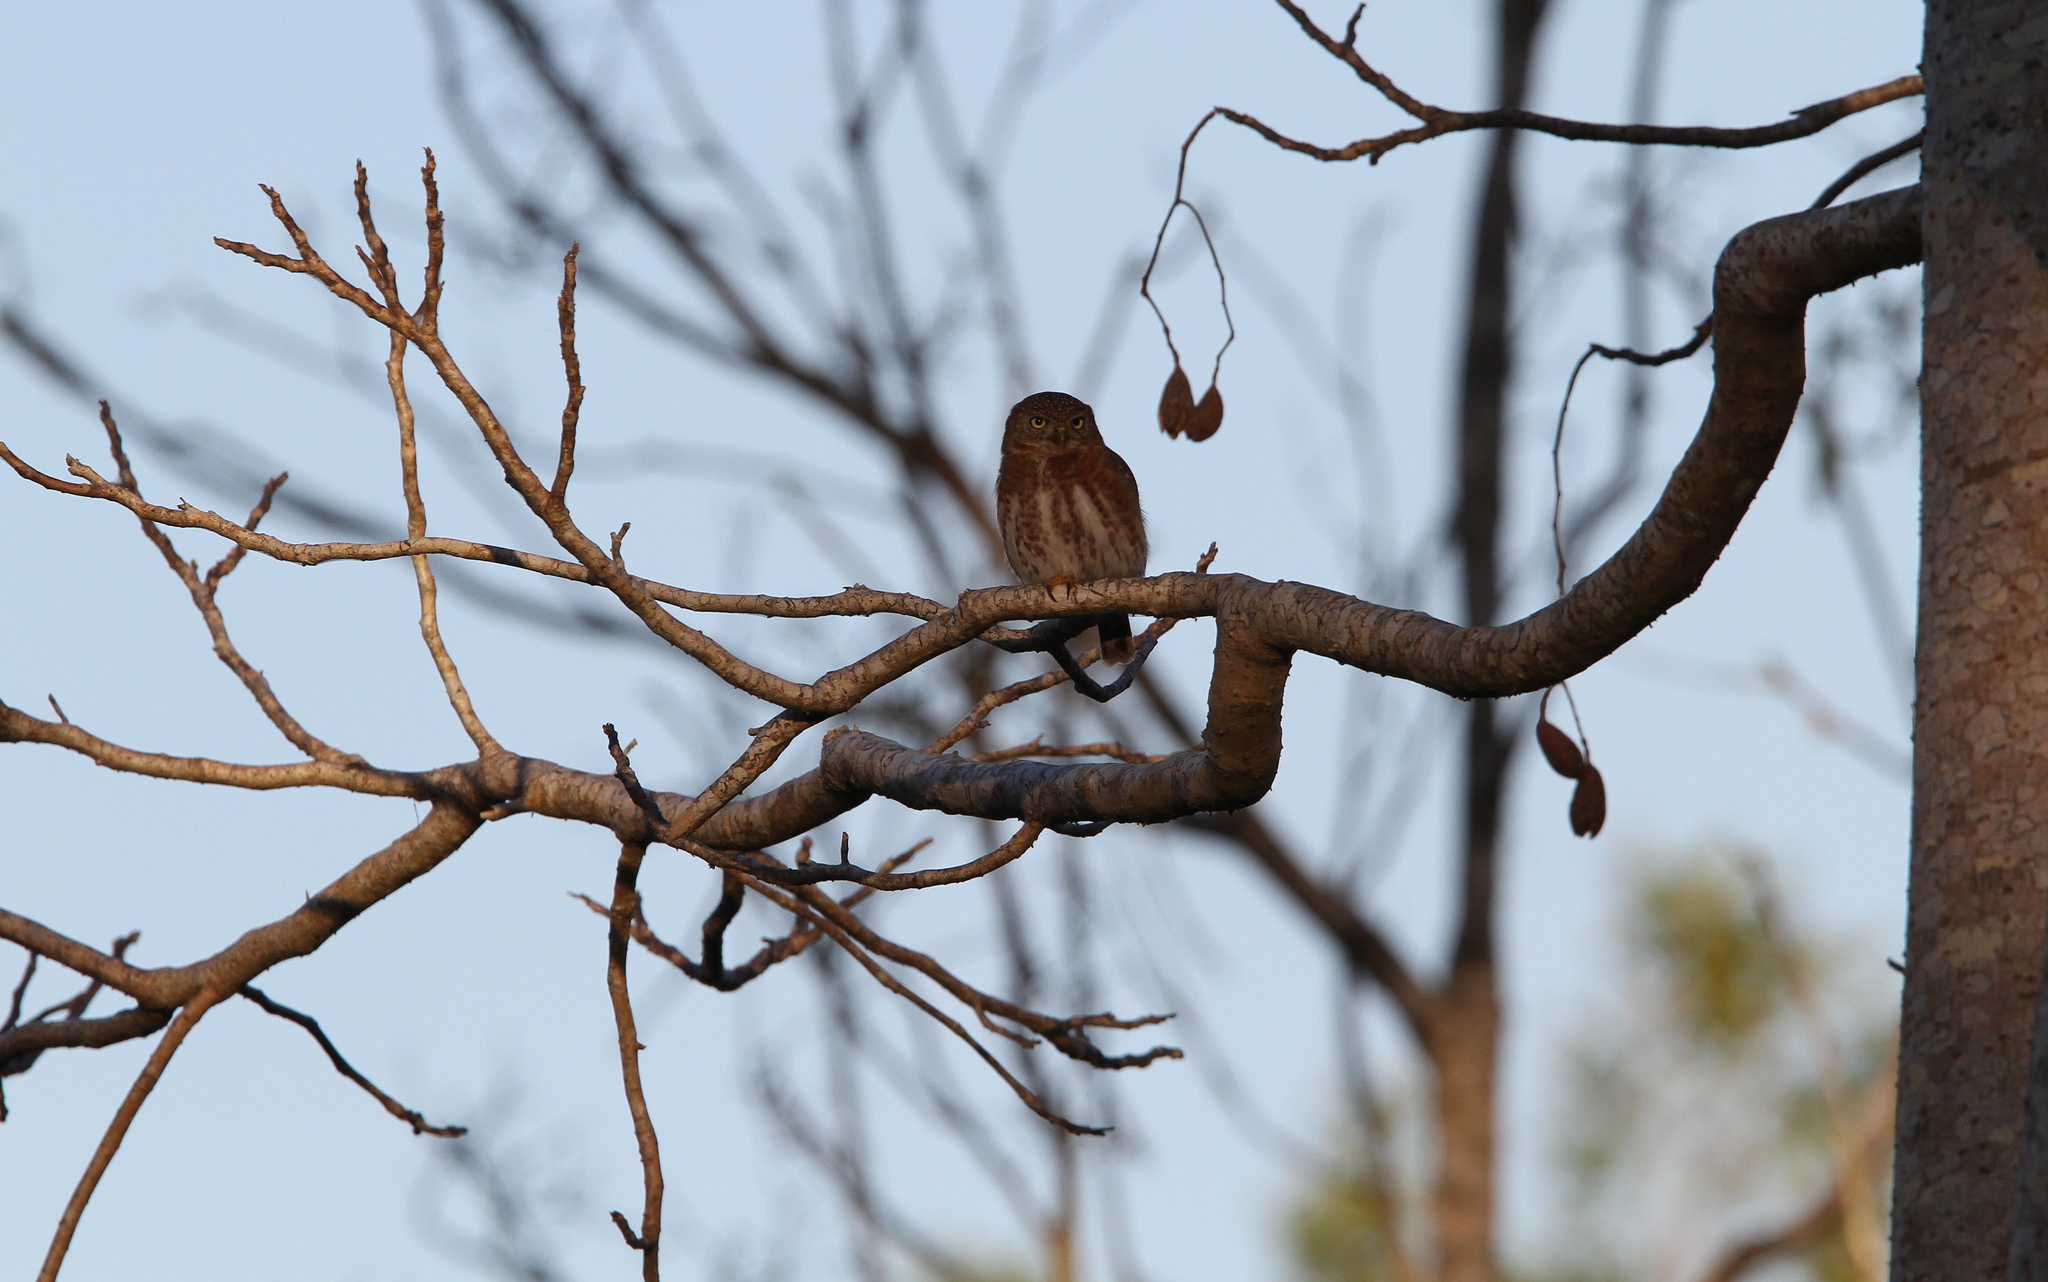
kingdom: Animalia
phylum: Chordata
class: Aves
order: Strigiformes
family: Strigidae
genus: Glaucidium
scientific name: Glaucidium siju
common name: Cuban pygmy-owl
